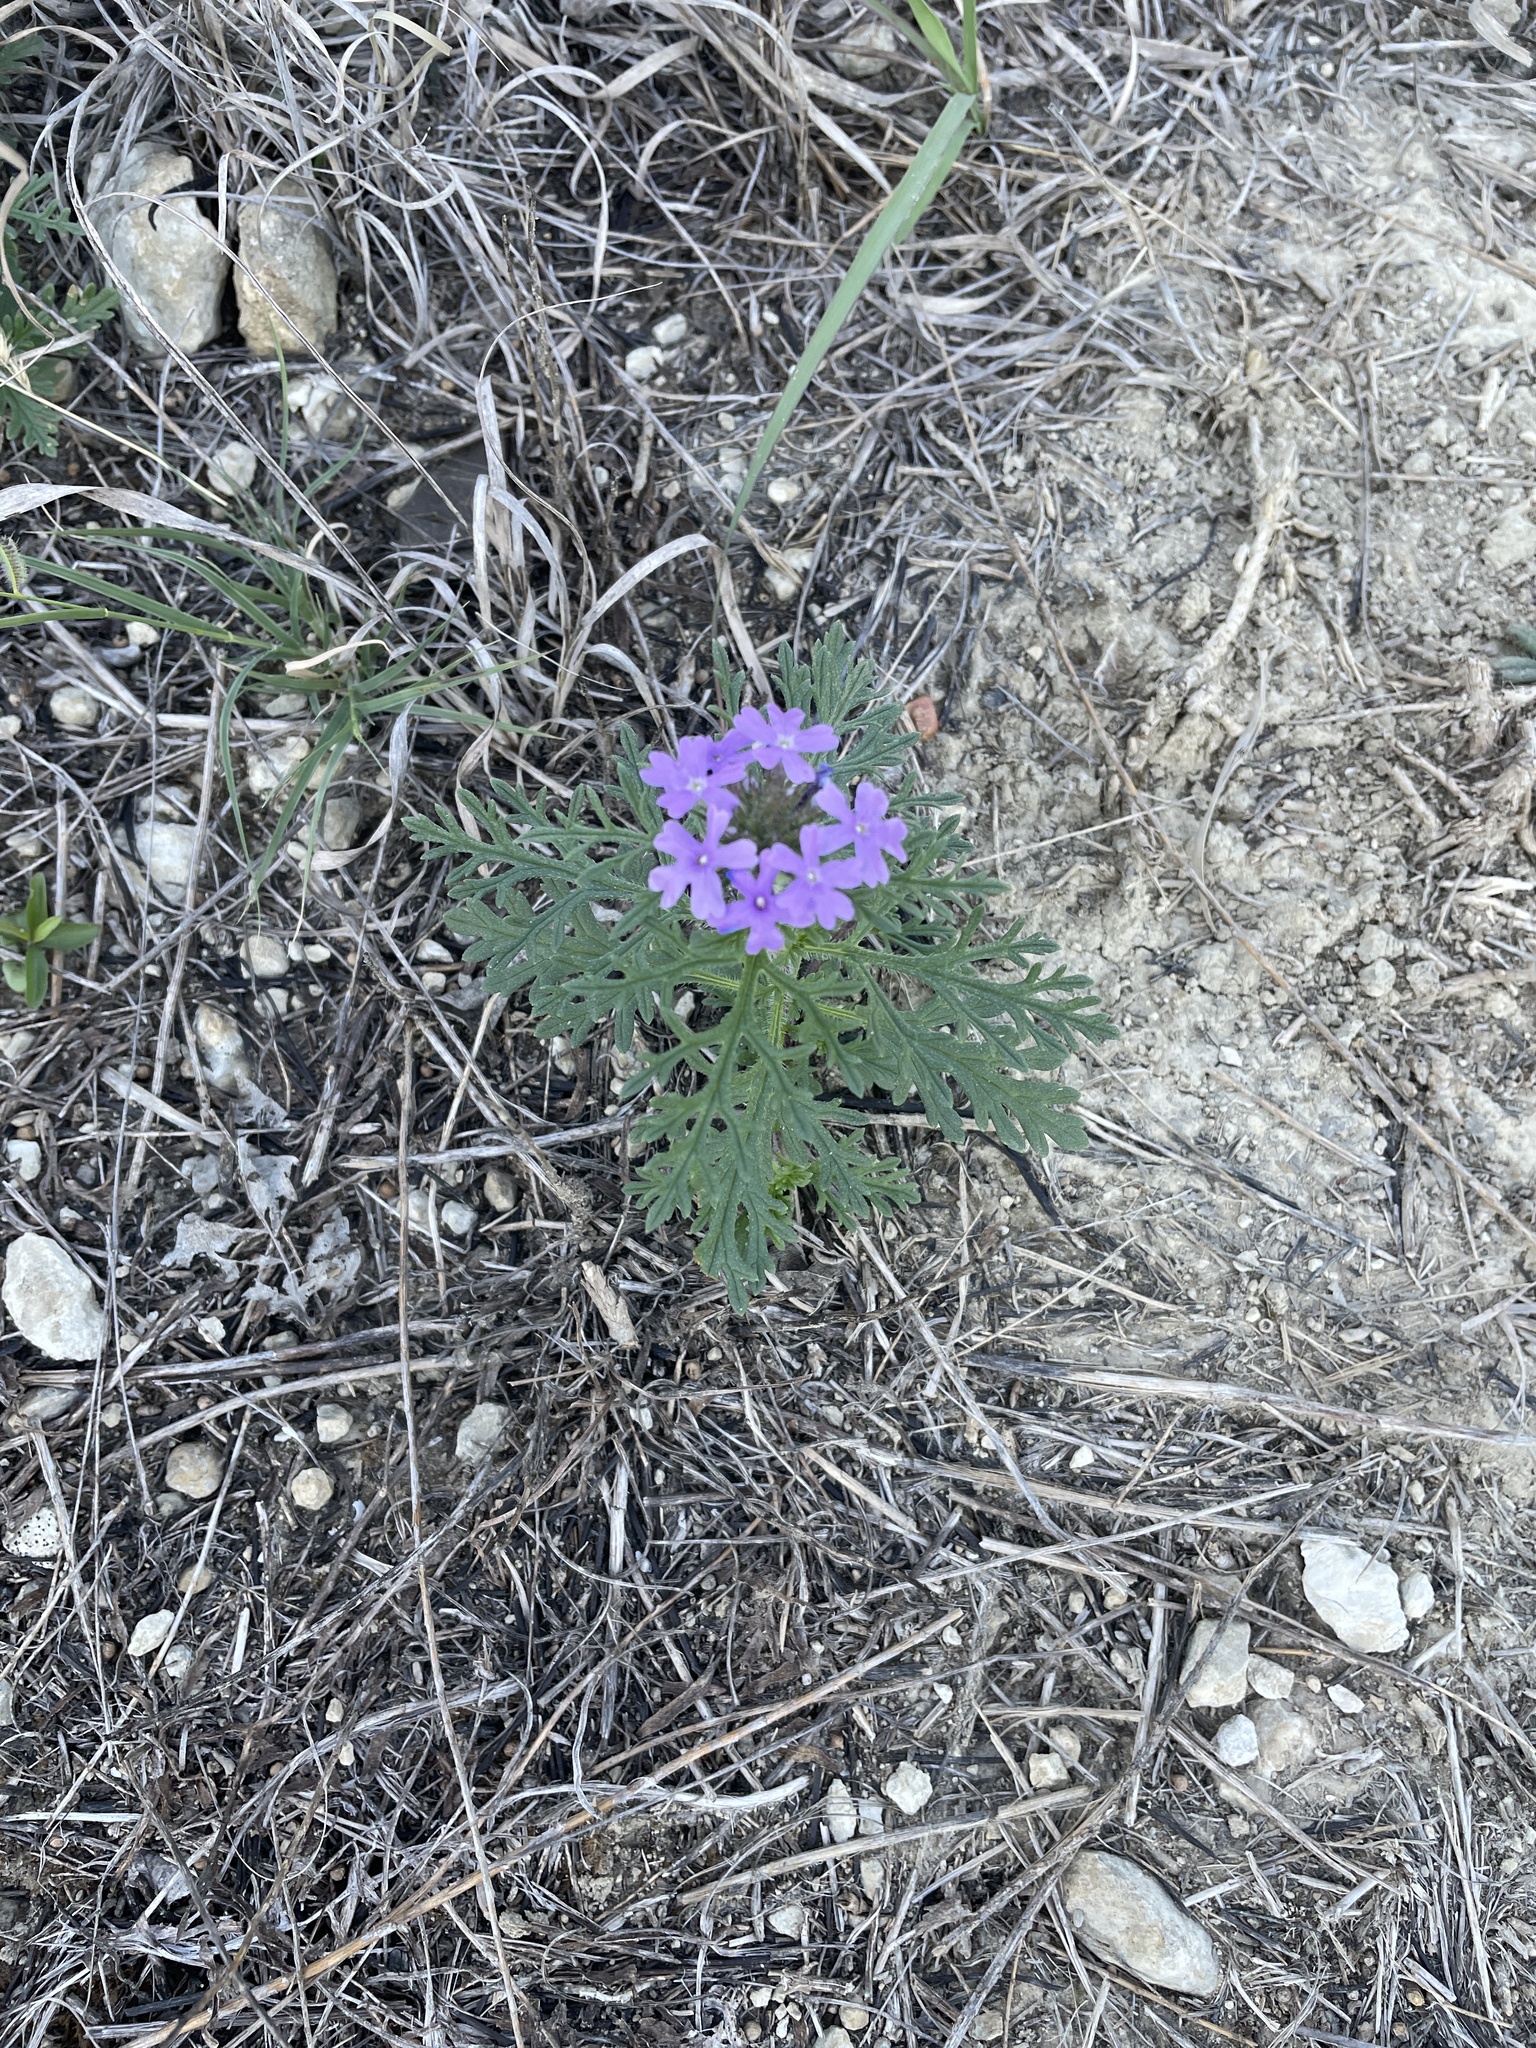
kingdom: Plantae
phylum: Tracheophyta
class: Magnoliopsida
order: Lamiales
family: Verbenaceae
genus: Verbena
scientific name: Verbena bipinnatifida
